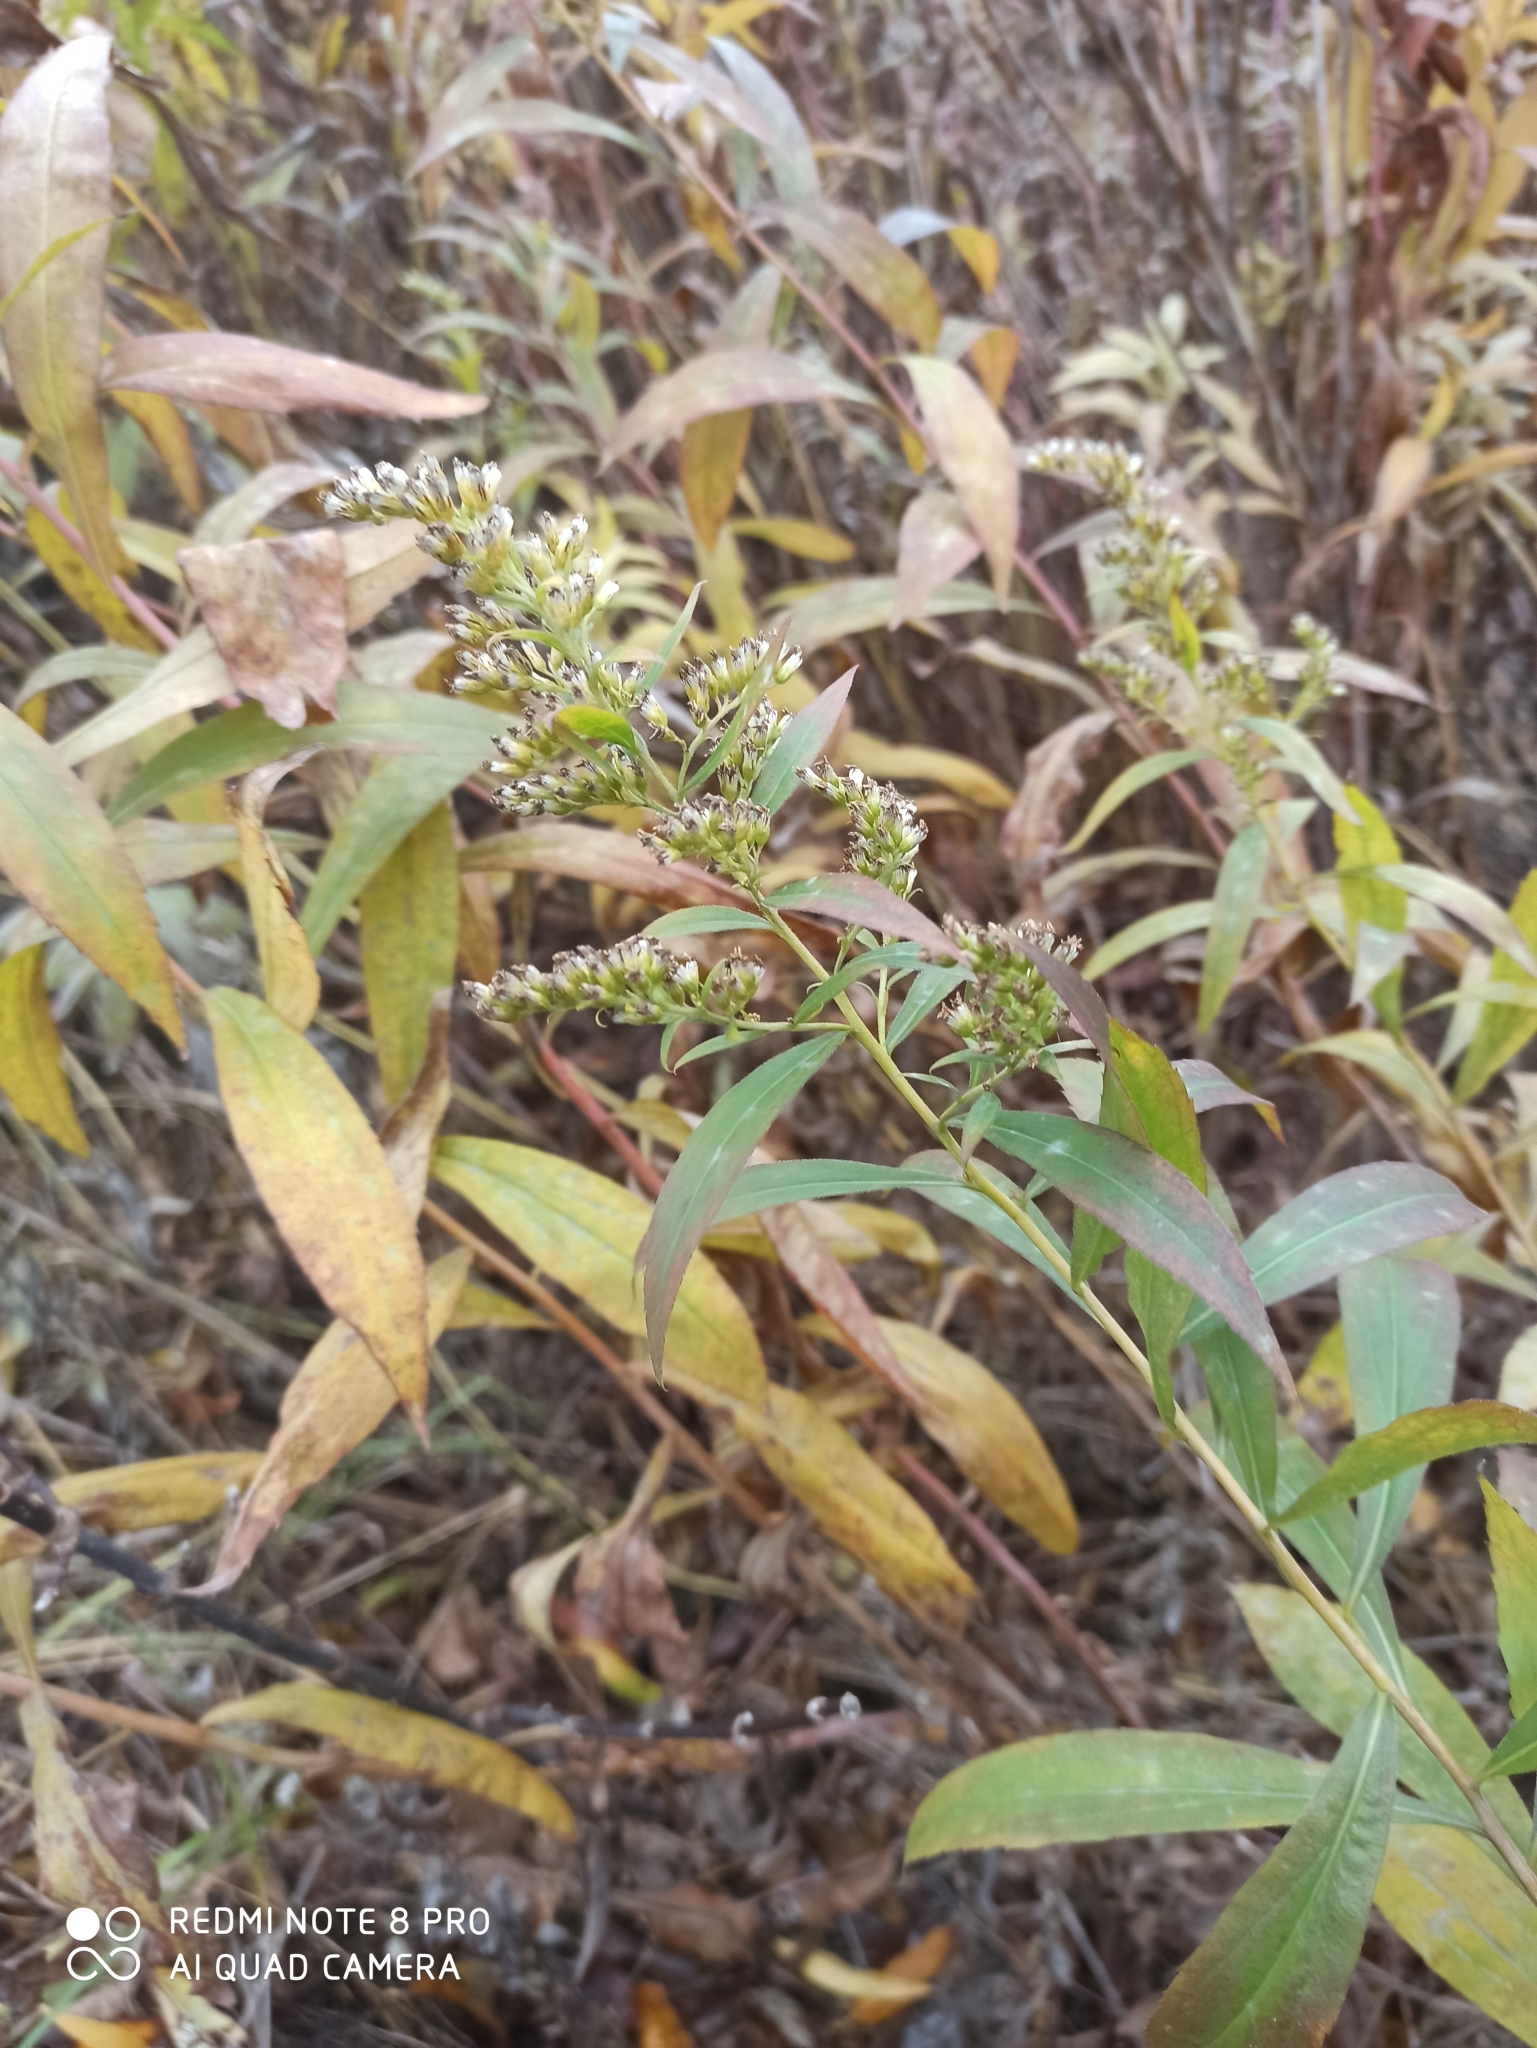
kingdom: Plantae
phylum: Tracheophyta
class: Magnoliopsida
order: Asterales
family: Asteraceae
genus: Solidago
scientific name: Solidago gigantea
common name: Giant goldenrod
